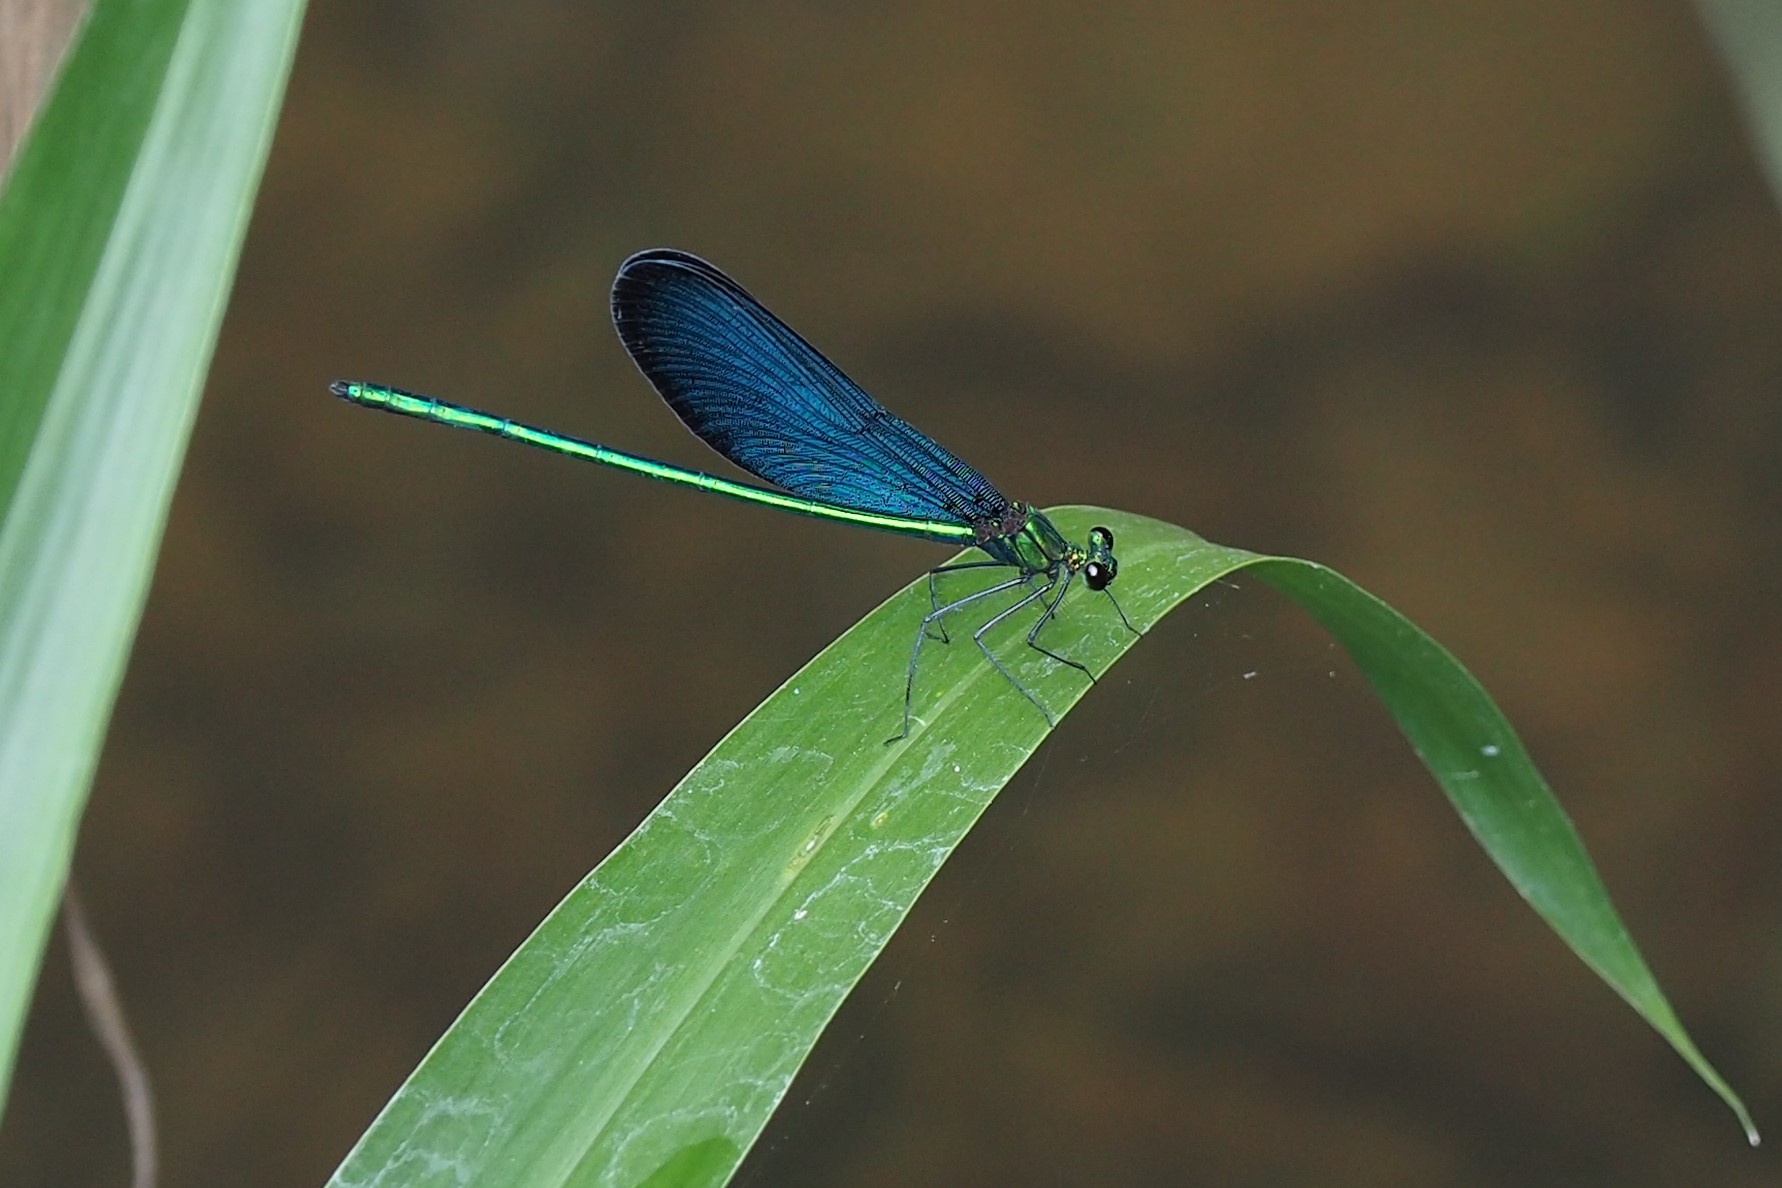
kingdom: Animalia
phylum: Arthropoda
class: Insecta
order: Odonata
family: Calopterygidae
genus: Matrona
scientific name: Matrona cyanoptera
